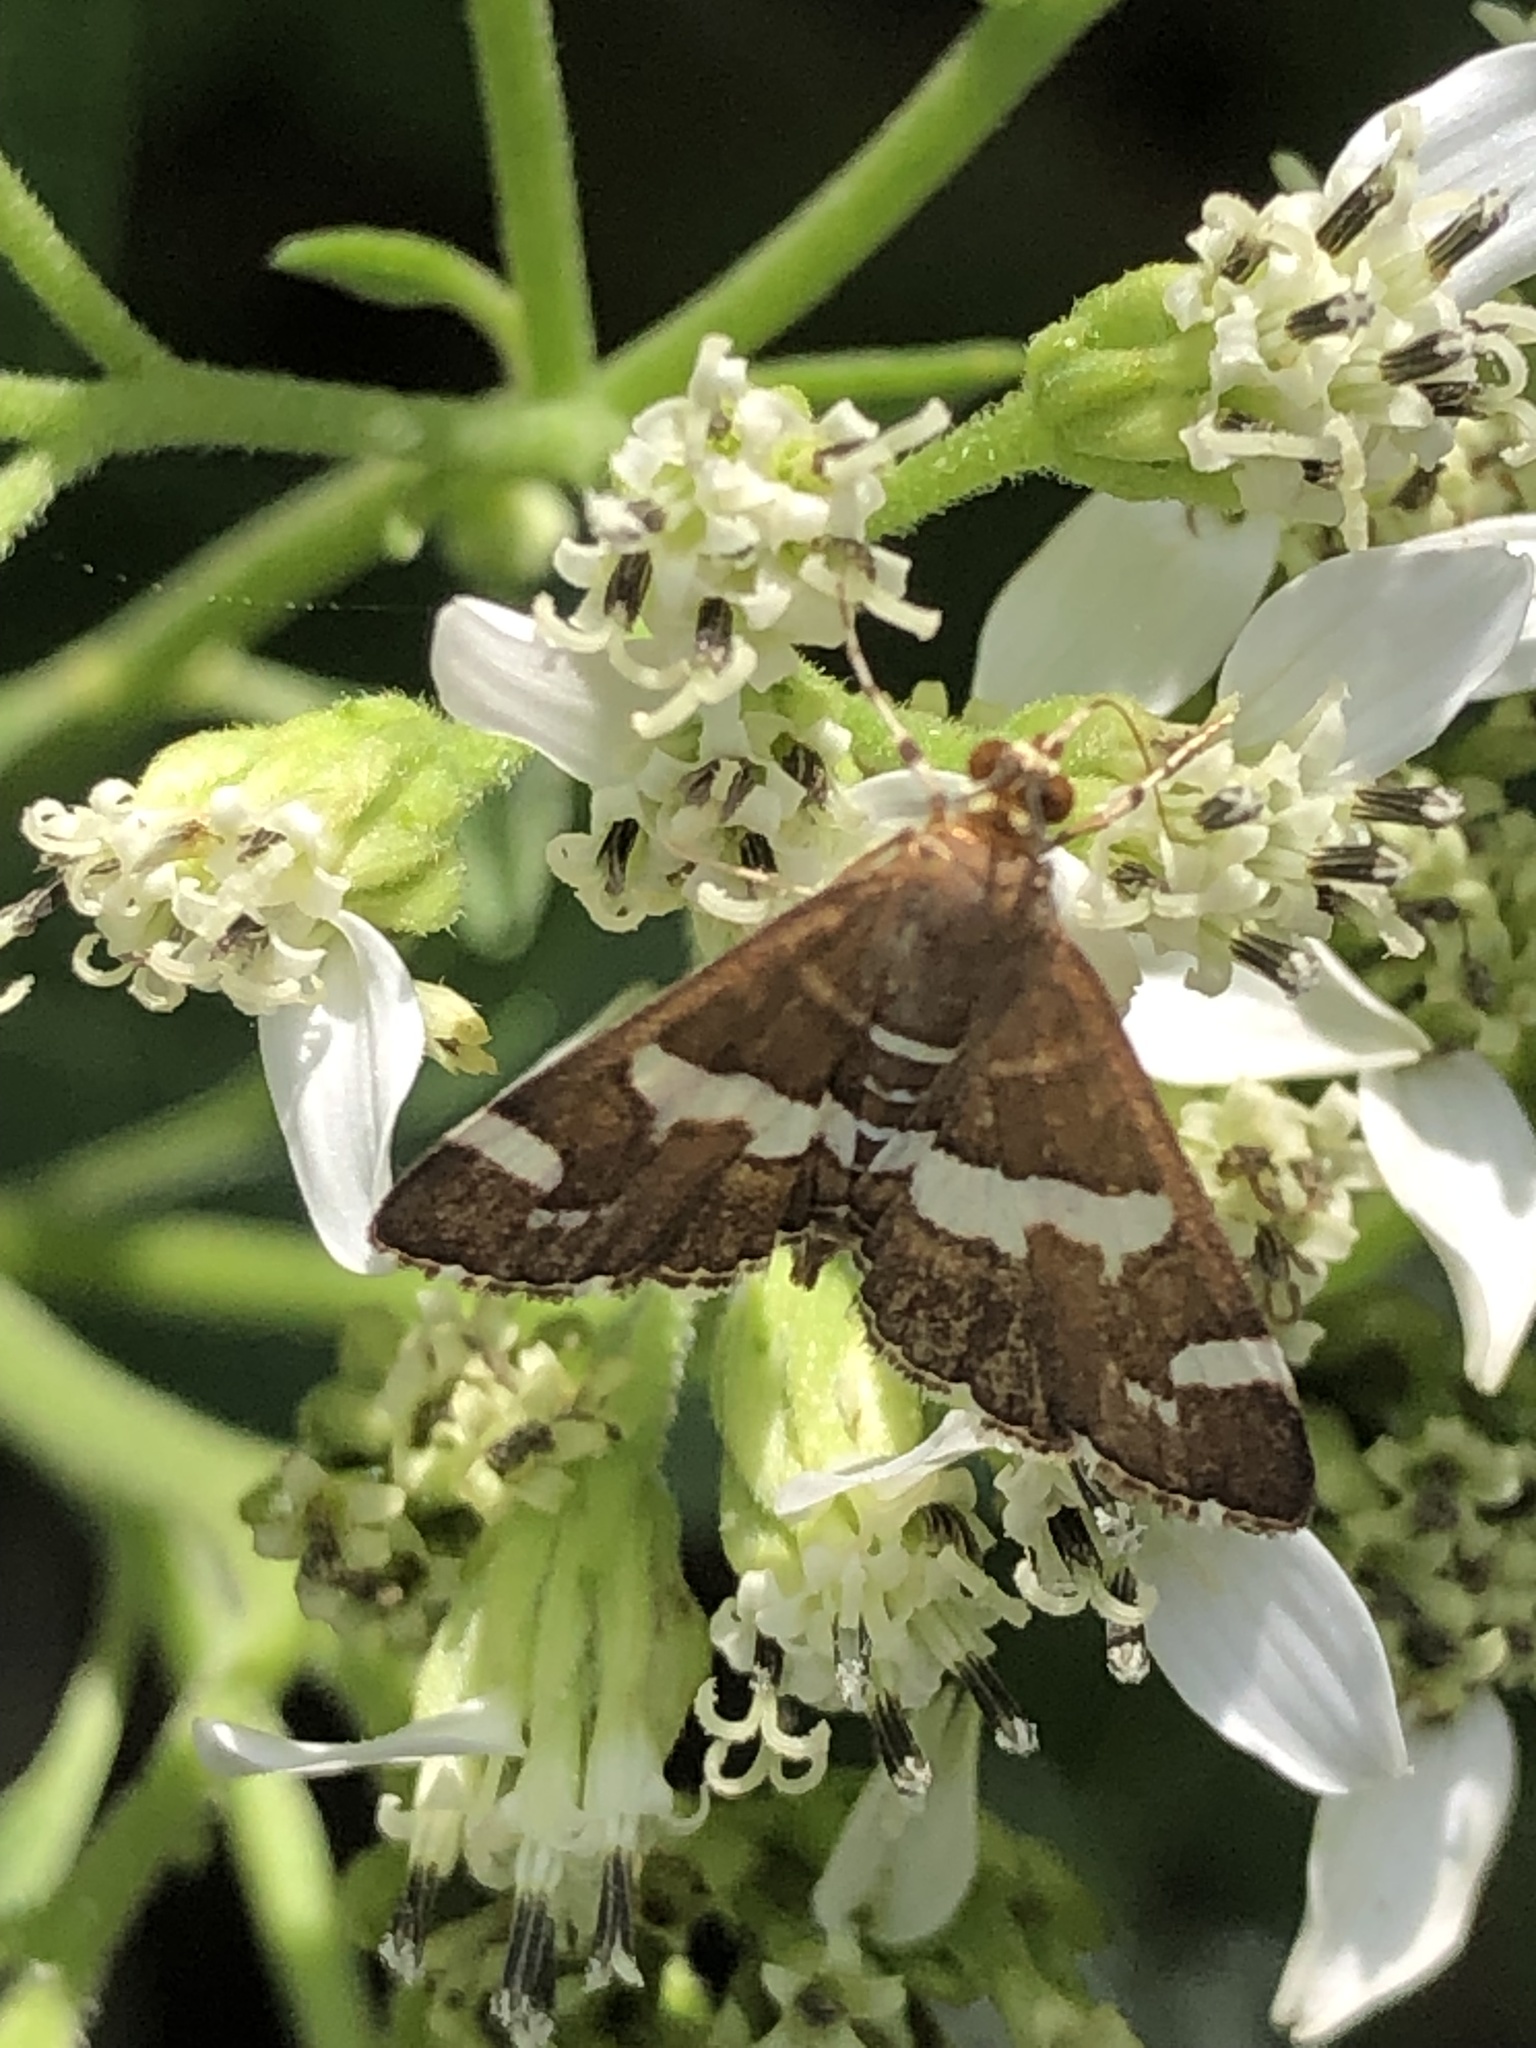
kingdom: Animalia
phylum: Arthropoda
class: Insecta
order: Lepidoptera
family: Crambidae
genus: Spoladea
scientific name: Spoladea recurvalis
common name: Beet webworm moth
